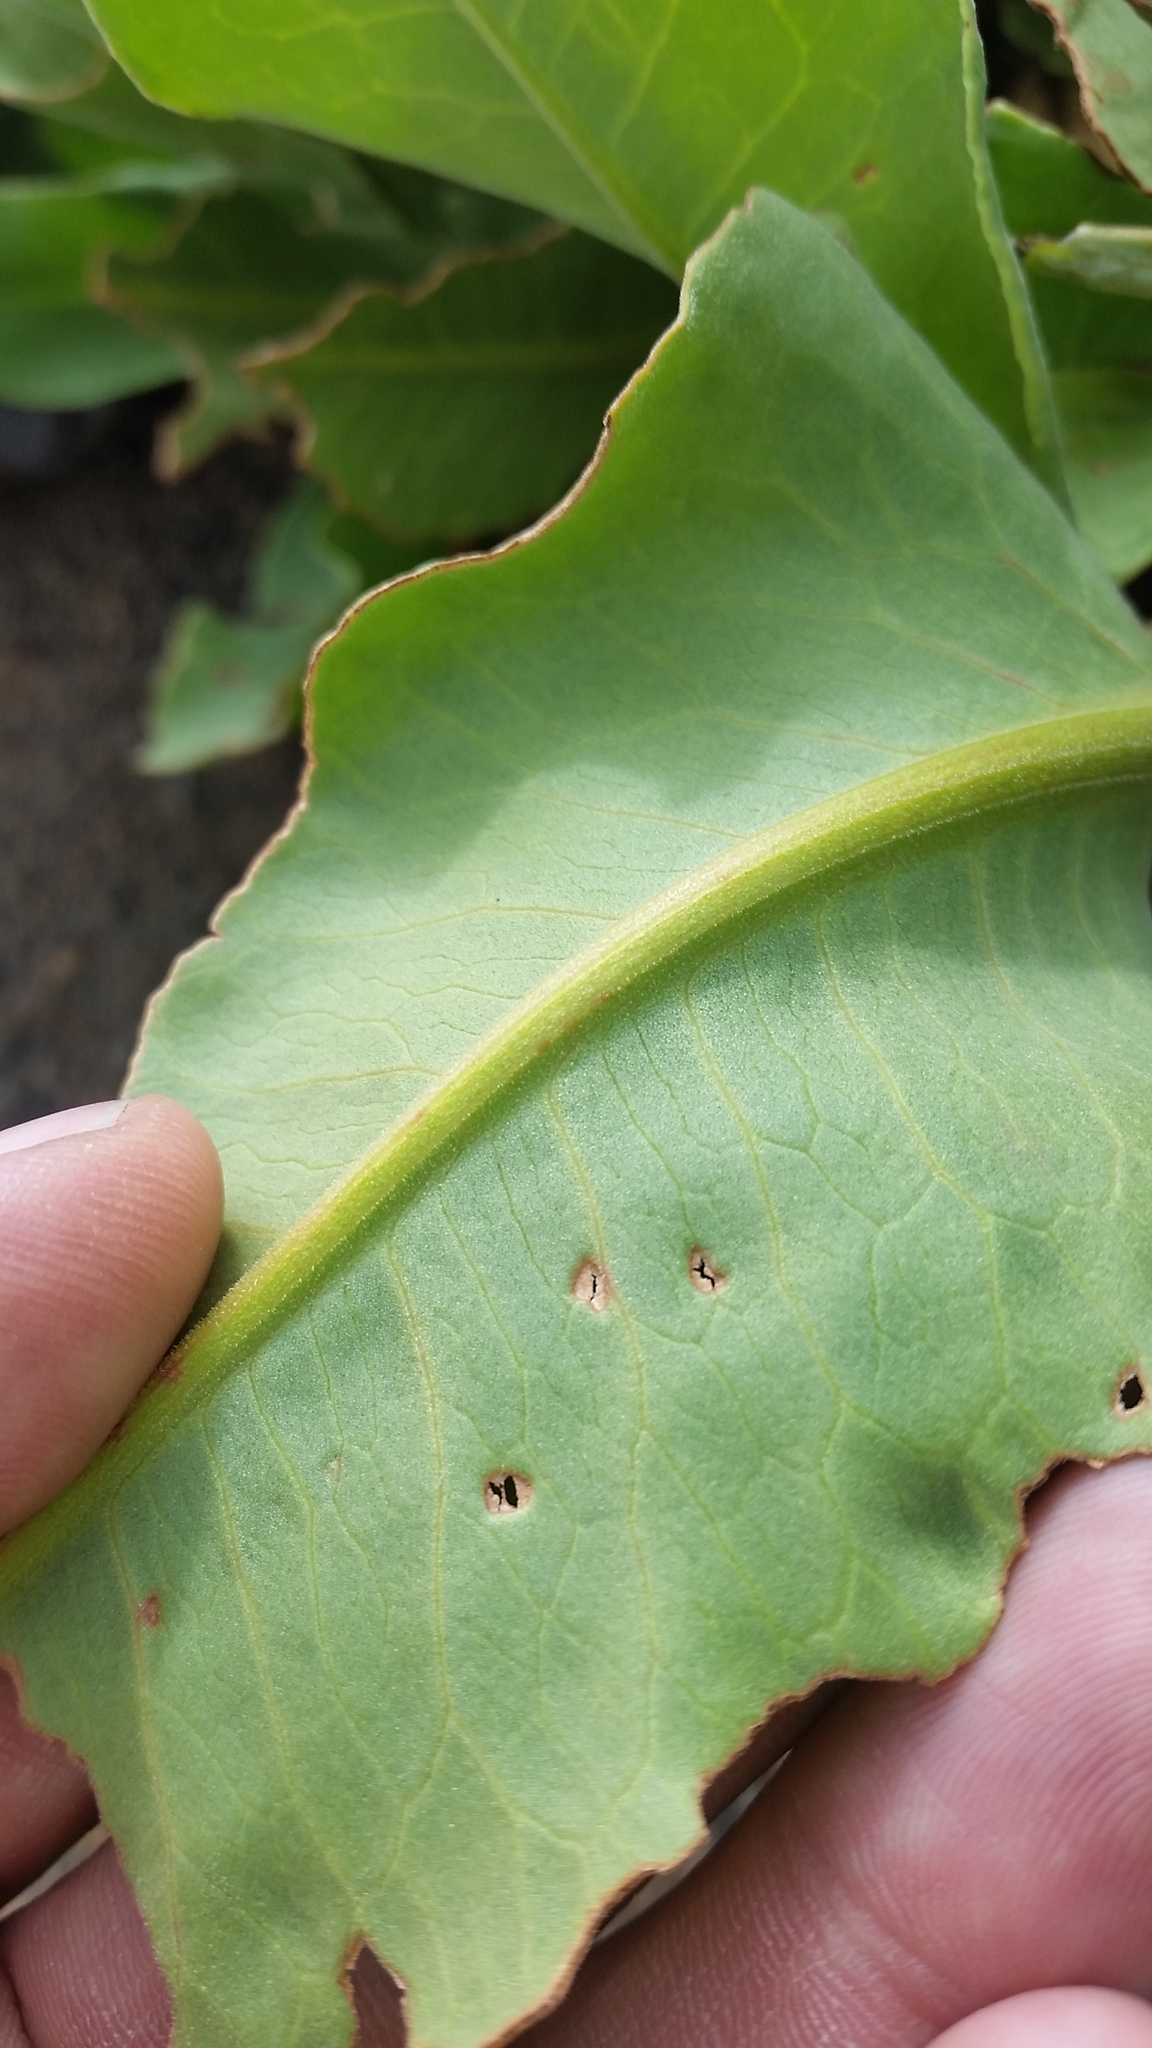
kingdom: Plantae
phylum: Tracheophyta
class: Magnoliopsida
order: Caryophyllales
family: Polygonaceae
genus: Rumex
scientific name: Rumex giganteus
